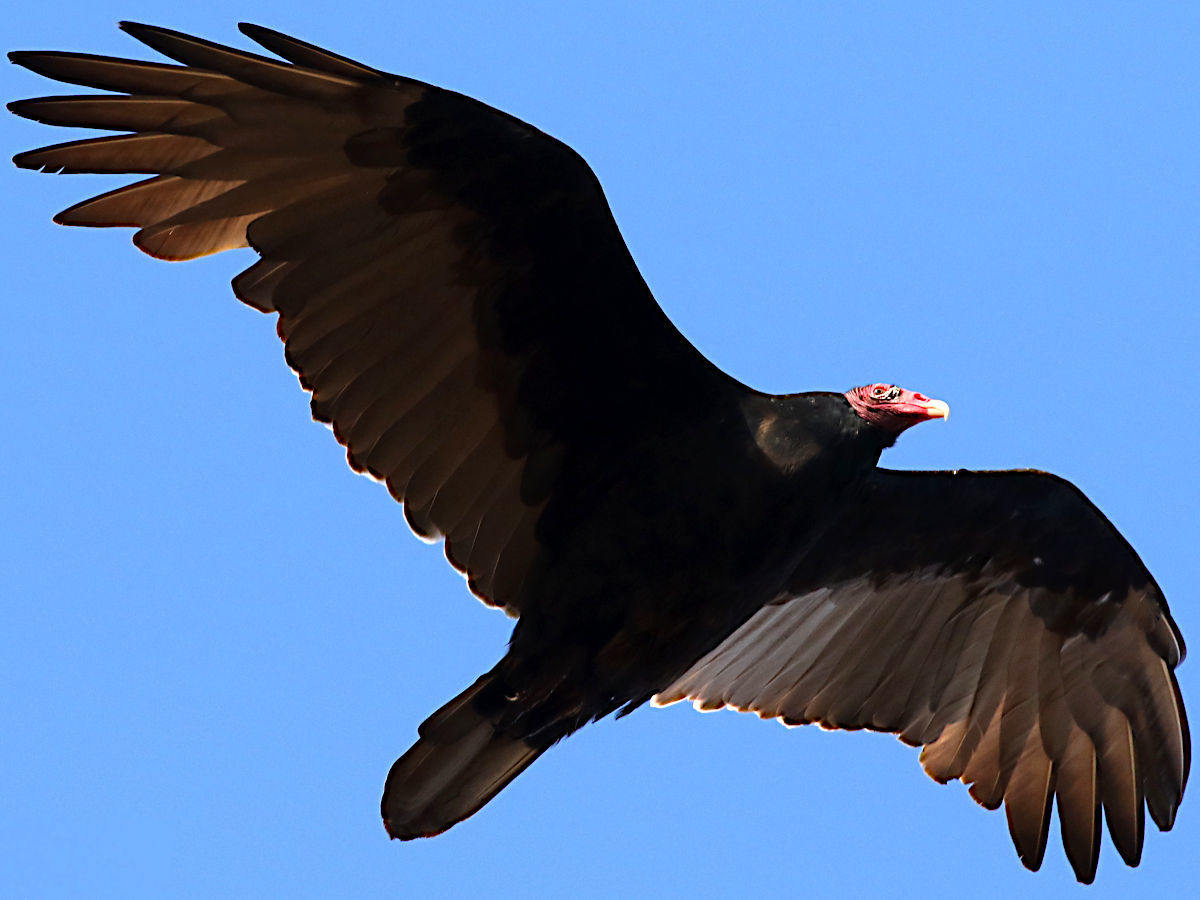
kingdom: Animalia
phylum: Chordata
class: Aves
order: Accipitriformes
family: Cathartidae
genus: Cathartes
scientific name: Cathartes aura
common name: Turkey vulture
